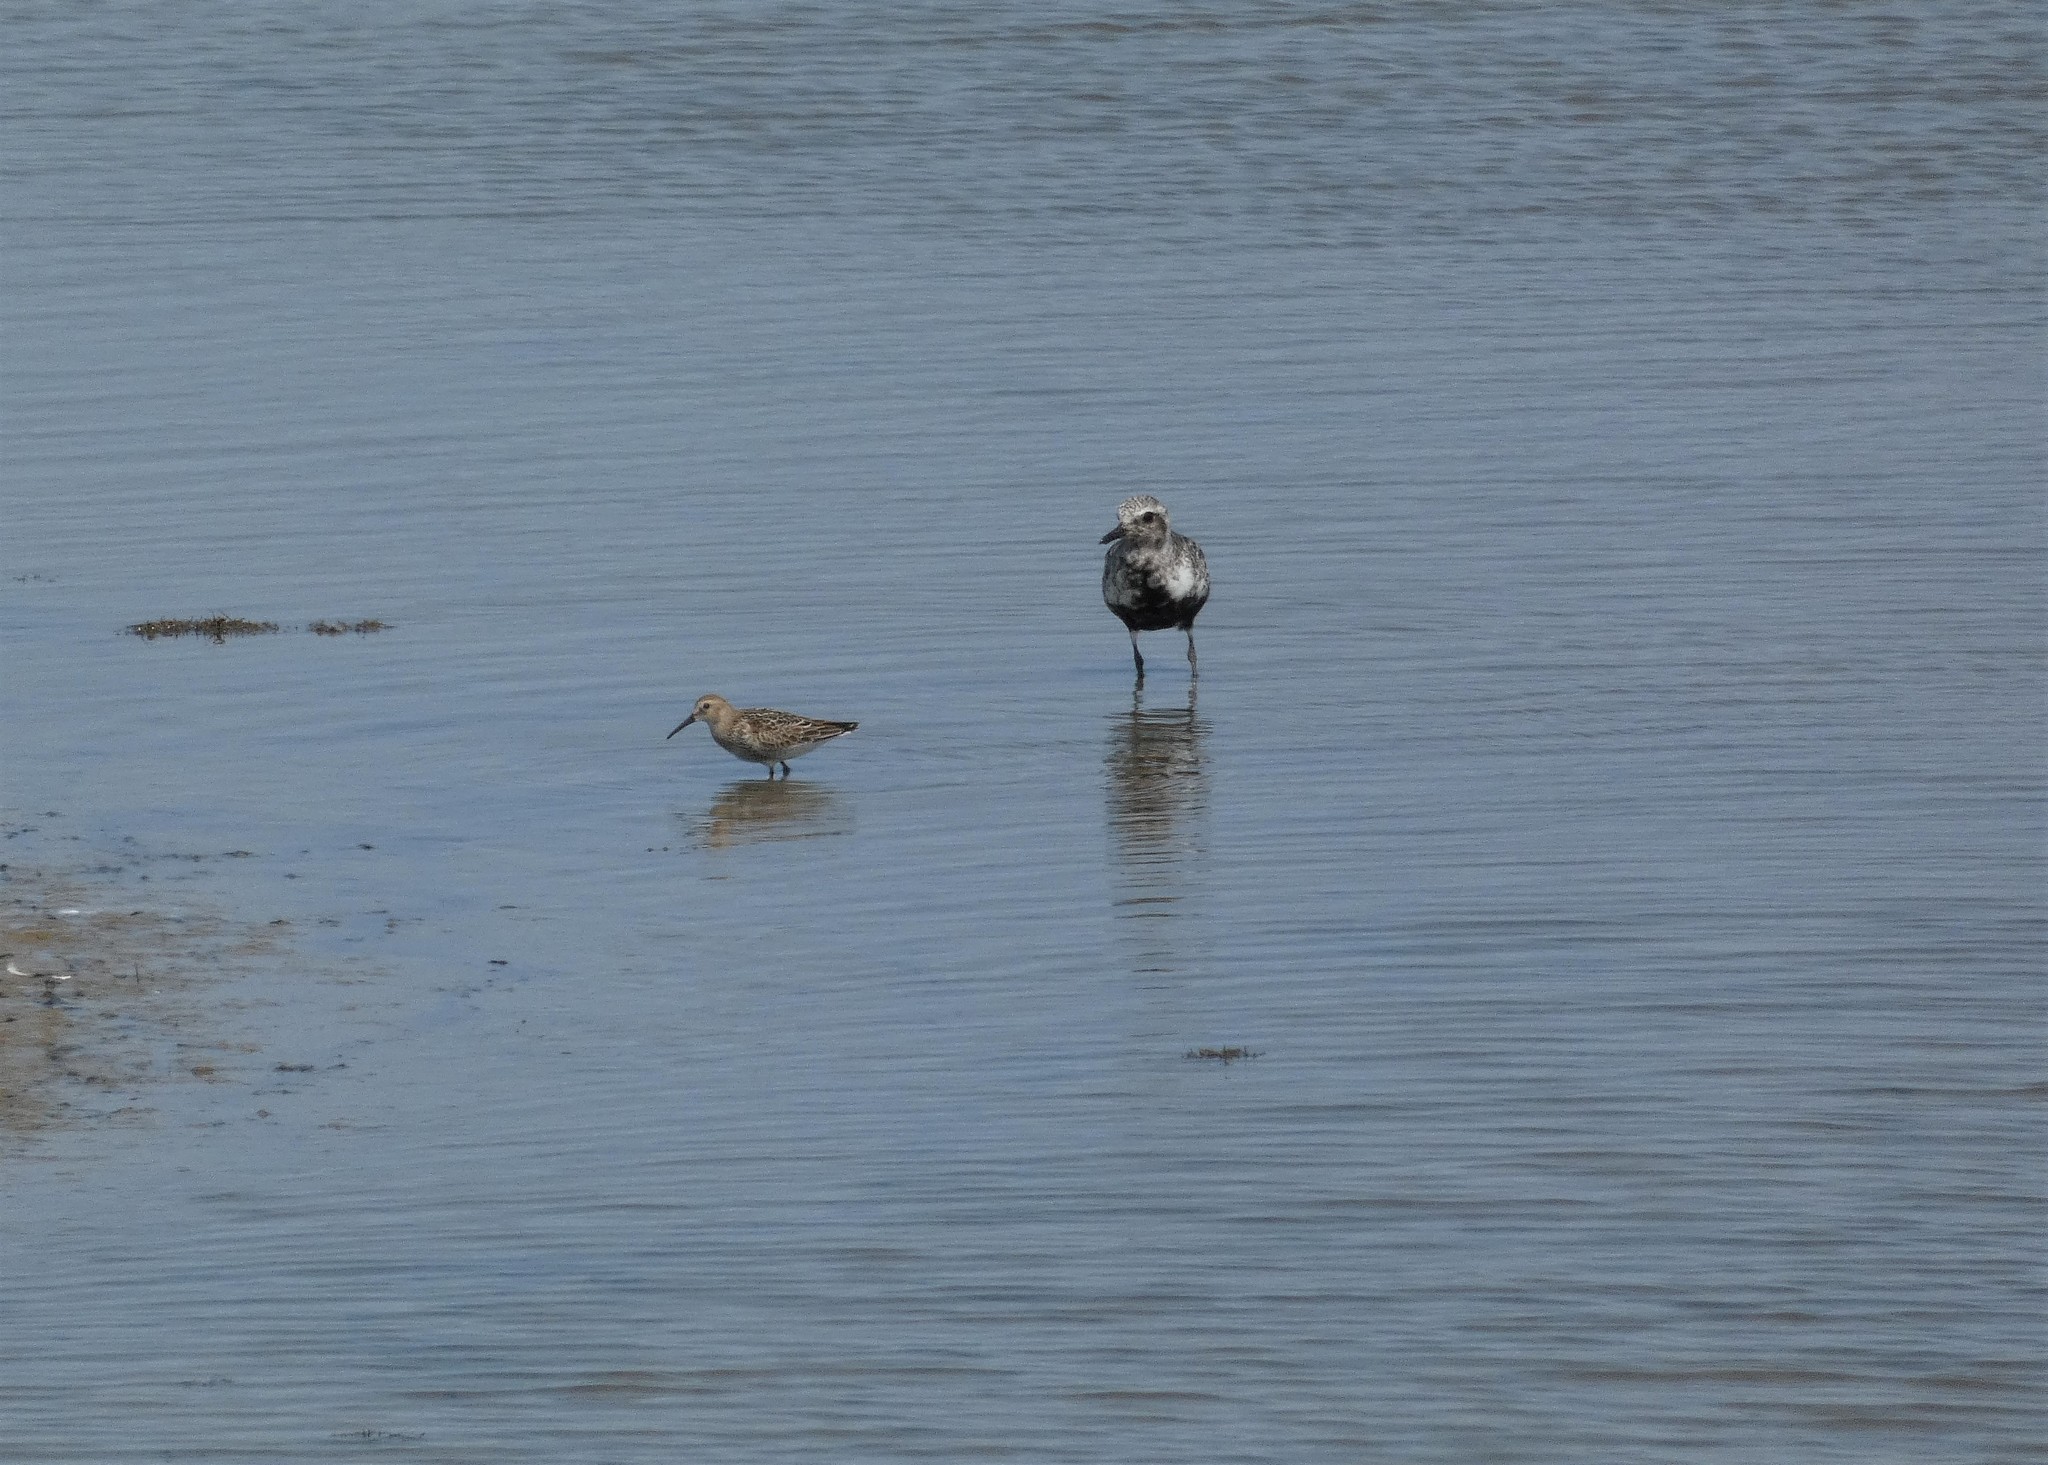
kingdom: Animalia
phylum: Chordata
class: Aves
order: Charadriiformes
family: Scolopacidae
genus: Calidris
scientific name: Calidris alpina
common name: Dunlin
